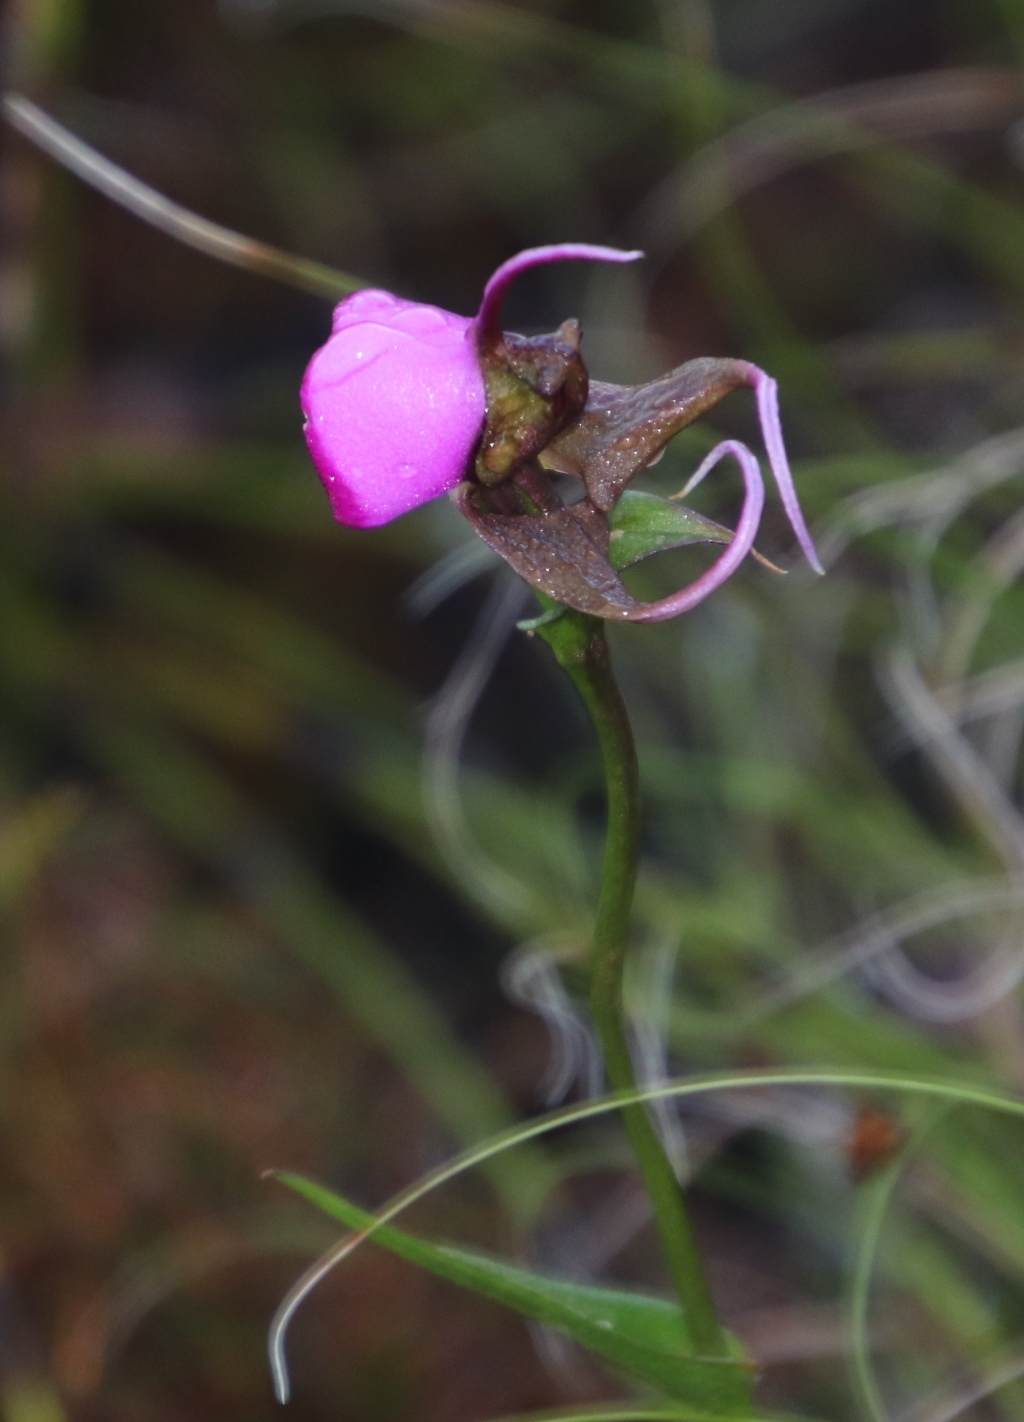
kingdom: Plantae
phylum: Tracheophyta
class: Liliopsida
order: Asparagales
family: Orchidaceae
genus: Disperis
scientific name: Disperis capensis
